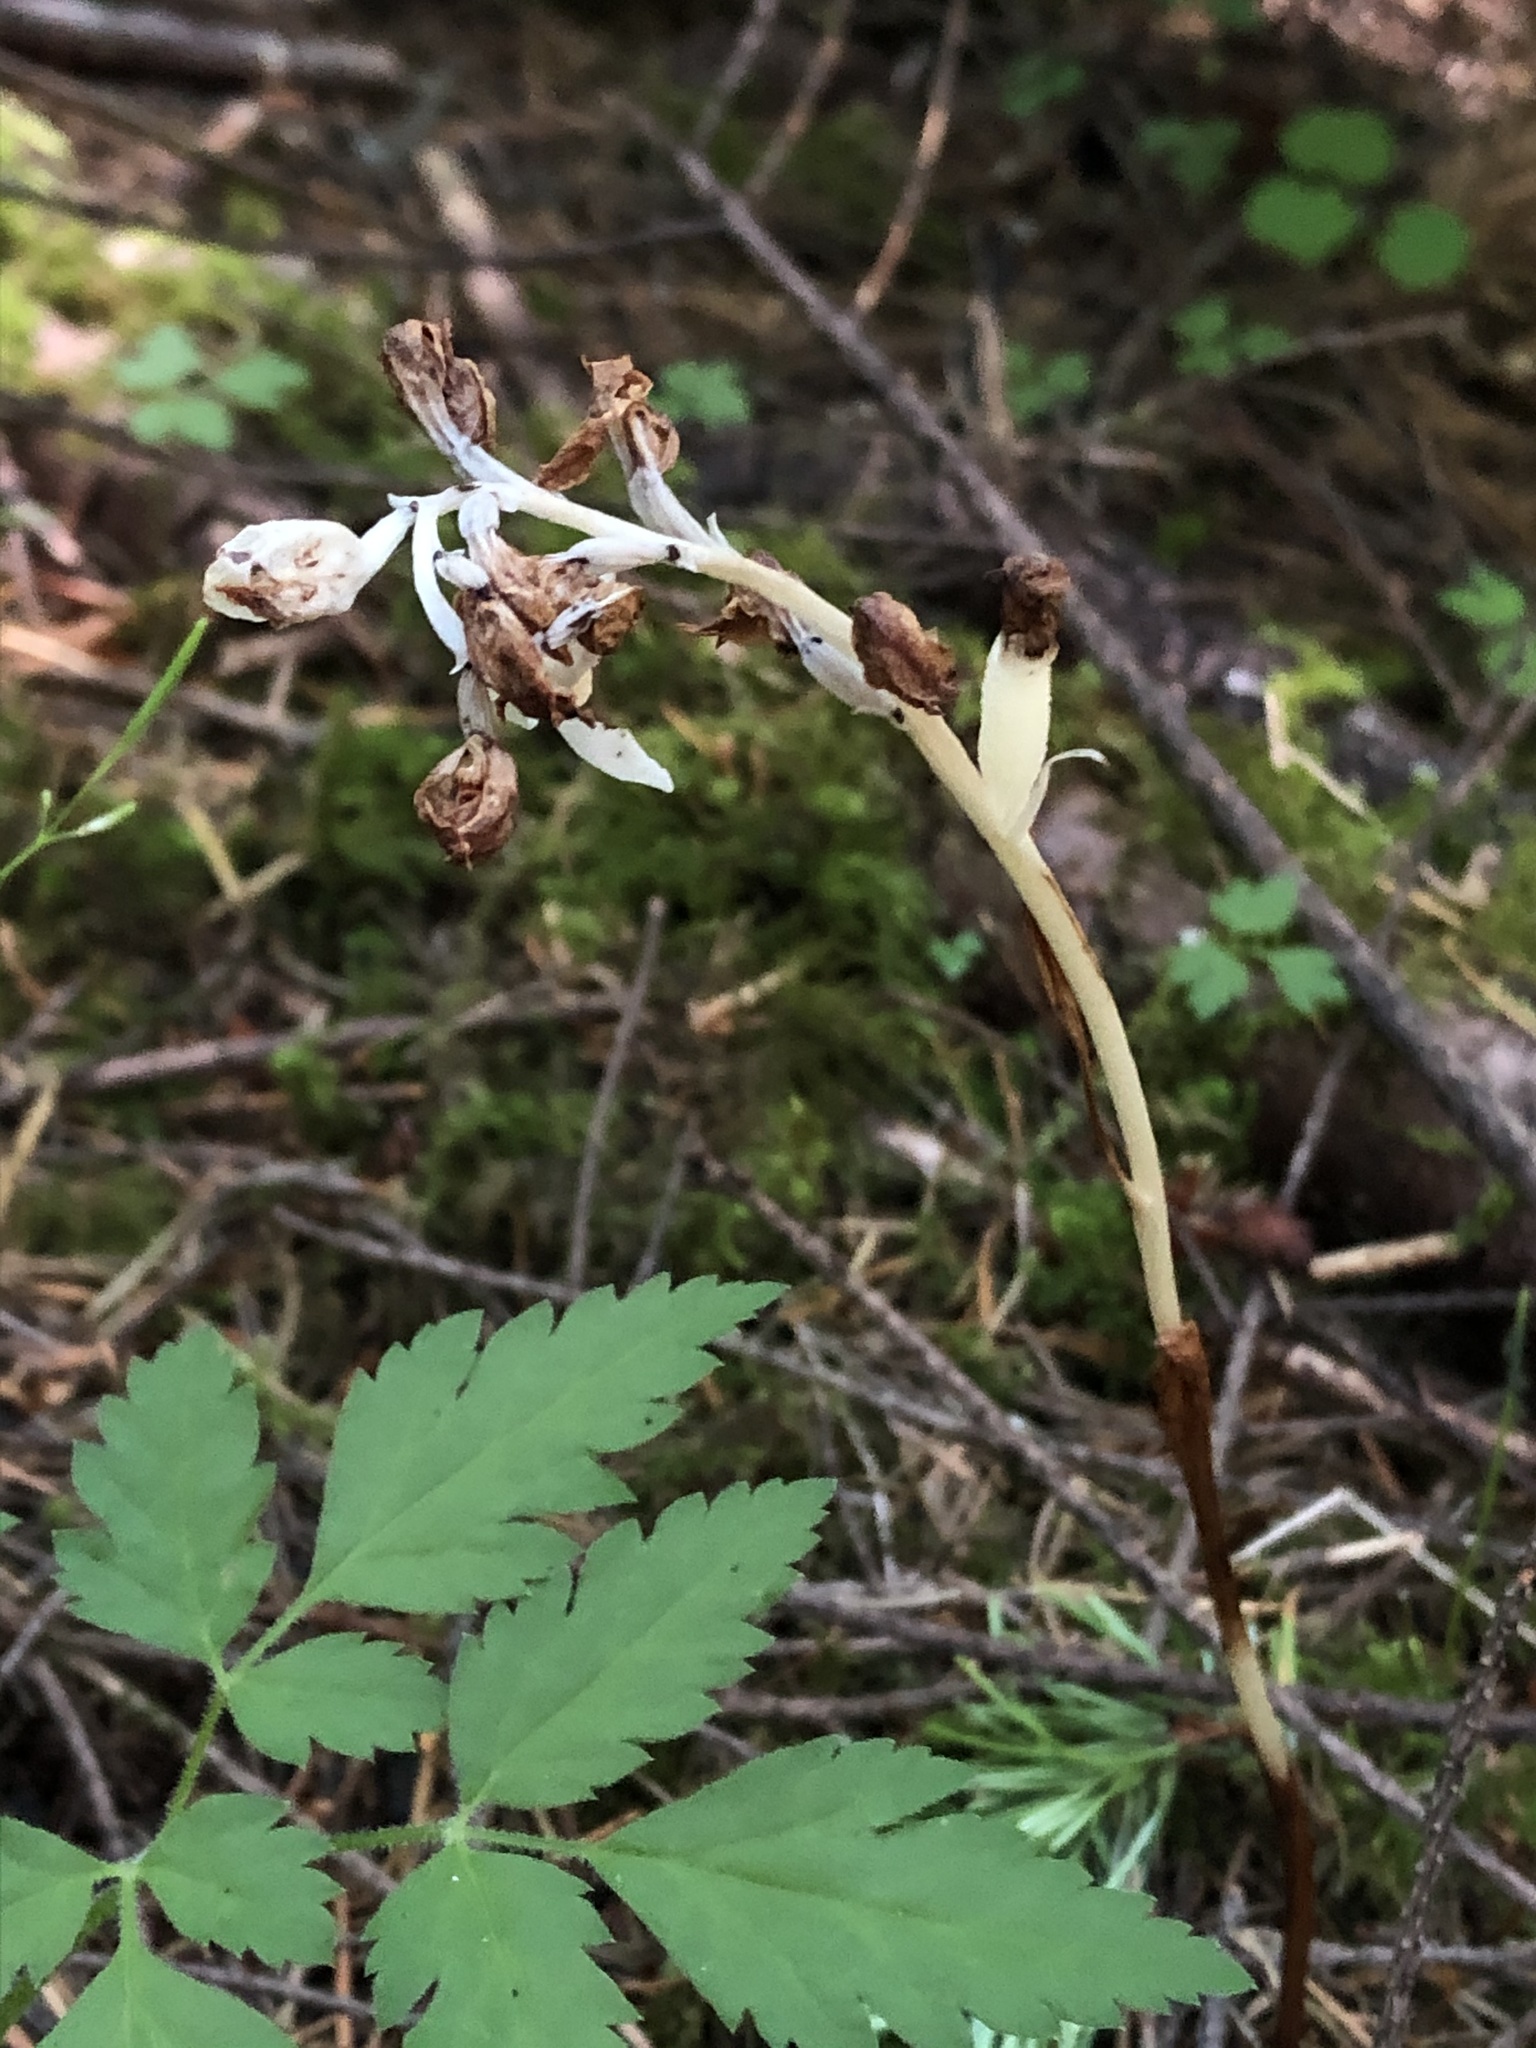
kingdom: Plantae
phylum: Tracheophyta
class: Liliopsida
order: Asparagales
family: Orchidaceae
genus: Cephalanthera
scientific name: Cephalanthera austiniae
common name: Phantom orchid
